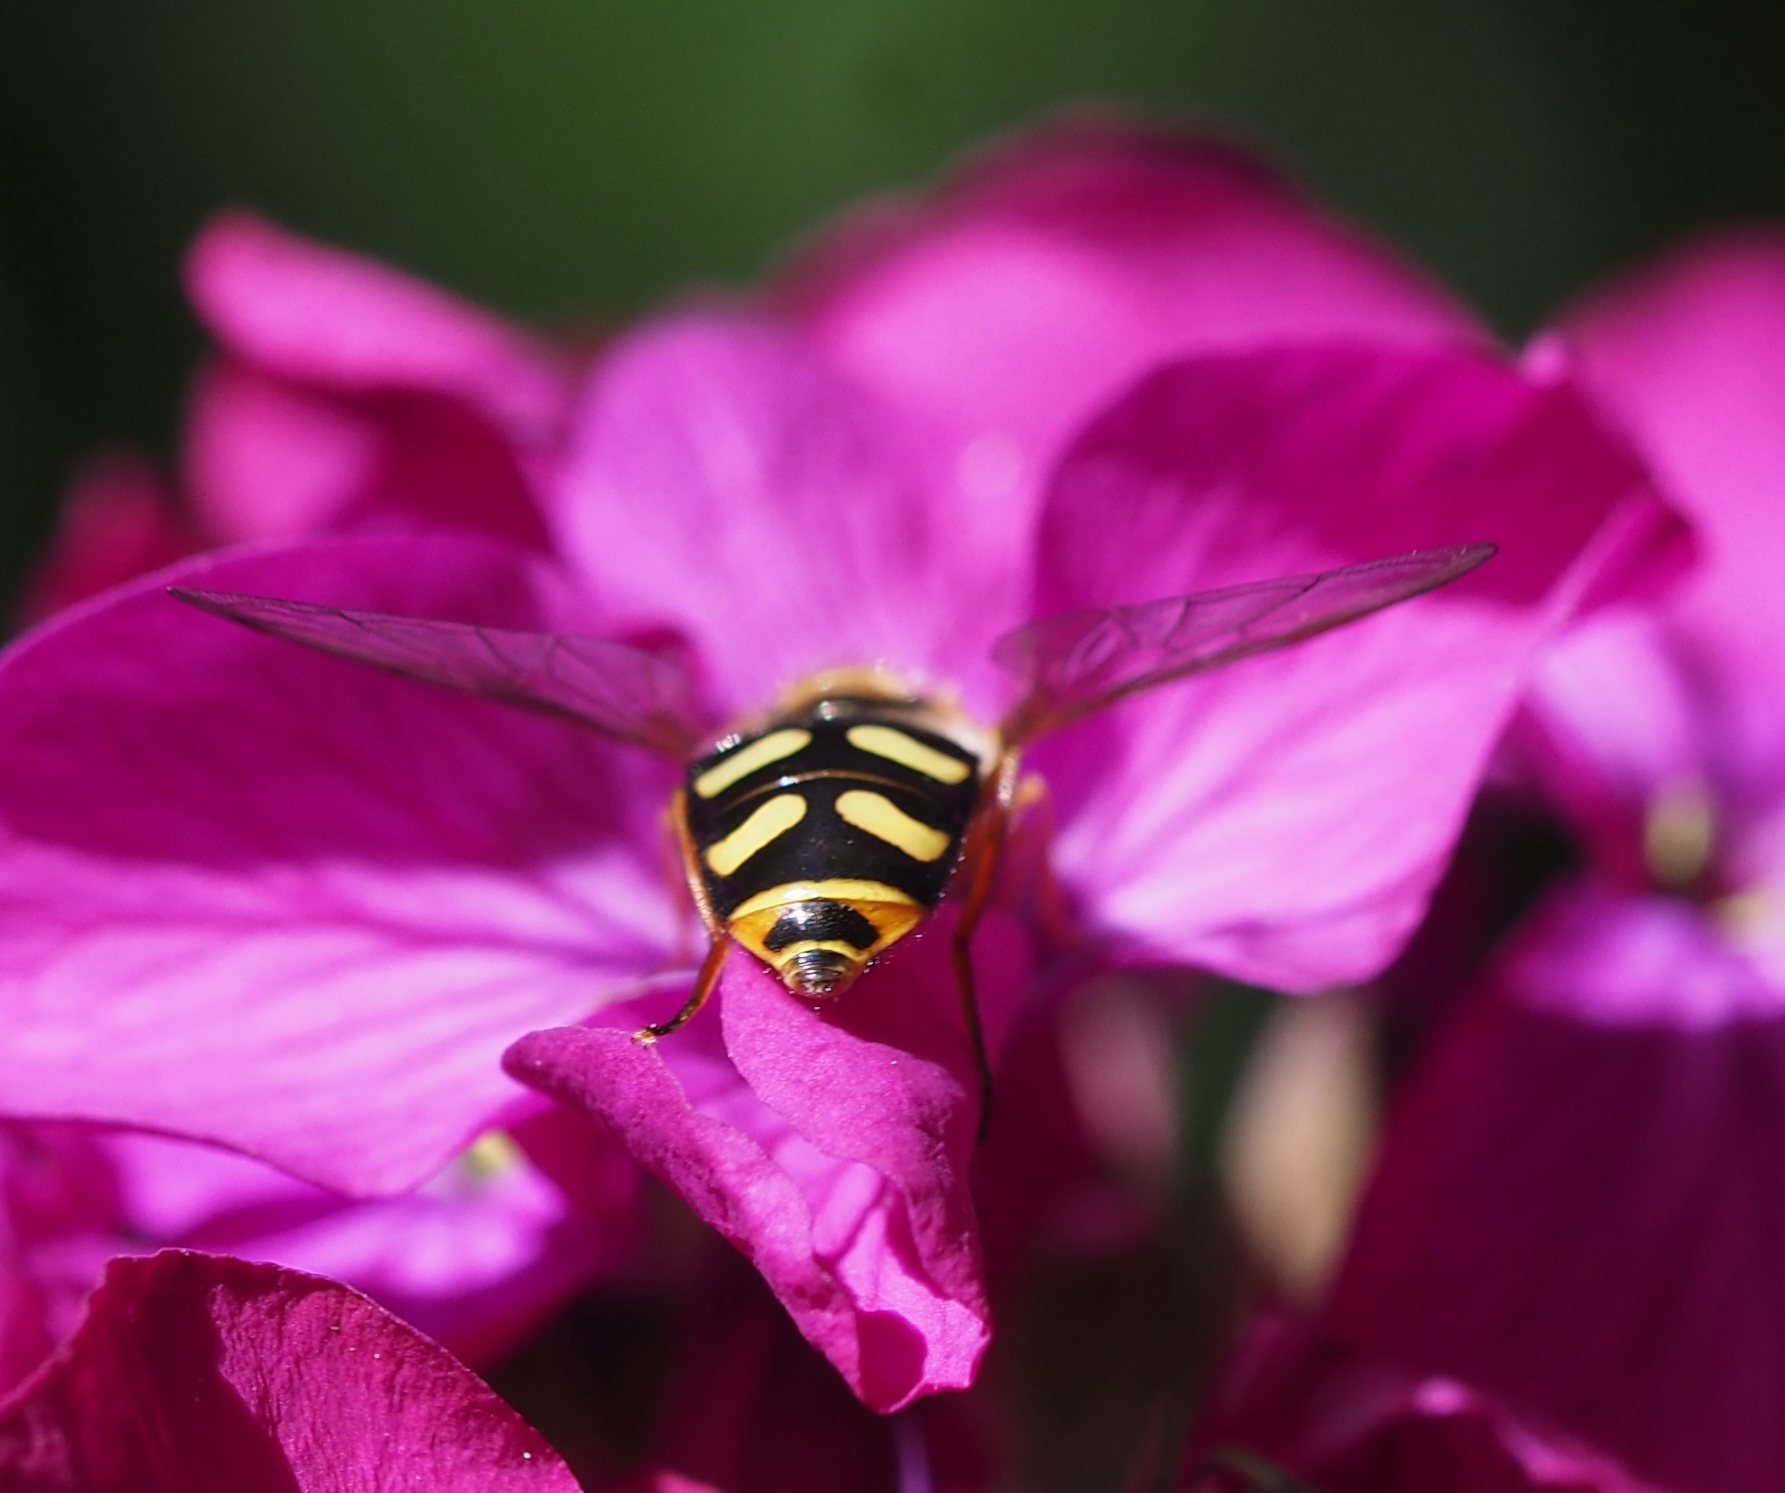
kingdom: Animalia
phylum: Arthropoda
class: Insecta
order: Diptera
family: Syrphidae
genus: Eupeodes
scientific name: Eupeodes luniger
